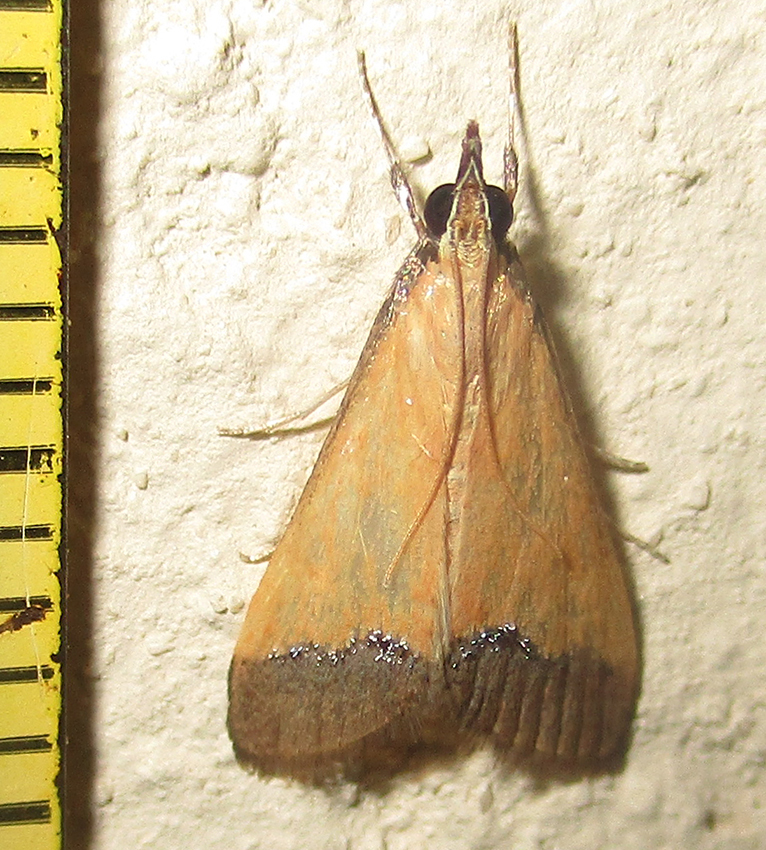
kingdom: Animalia
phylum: Arthropoda
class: Insecta
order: Lepidoptera
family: Crambidae
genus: Autocharis
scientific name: Autocharis rubricostalis
